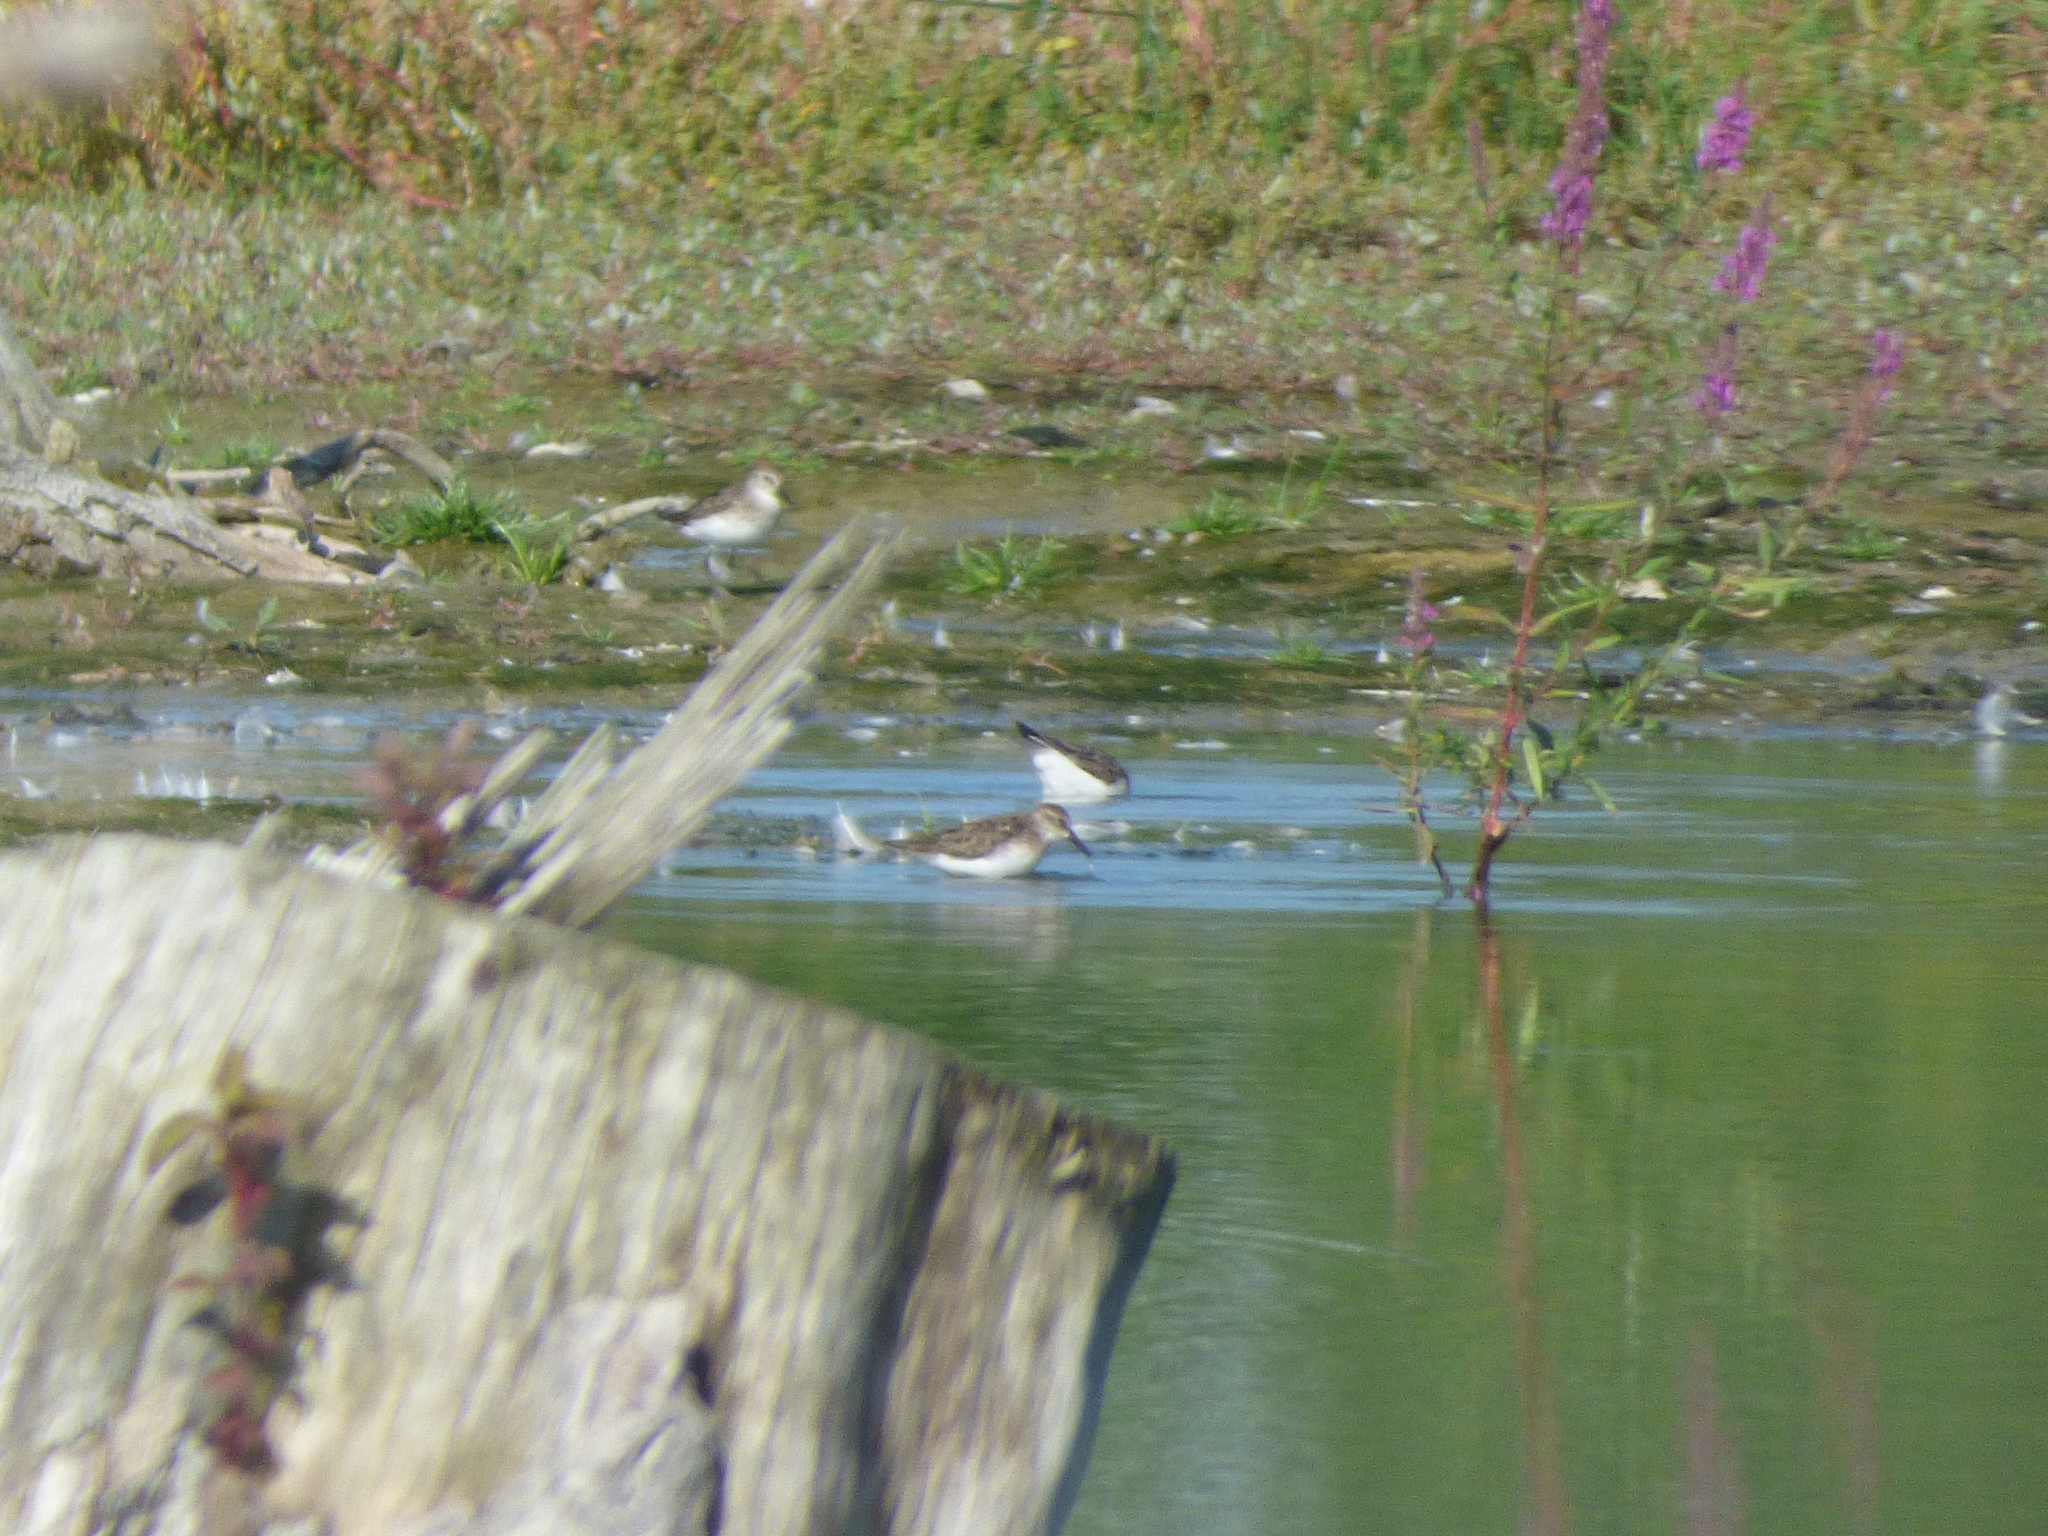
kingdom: Animalia
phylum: Chordata
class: Aves
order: Charadriiformes
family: Scolopacidae
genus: Calidris
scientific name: Calidris pusilla
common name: Semipalmated sandpiper
